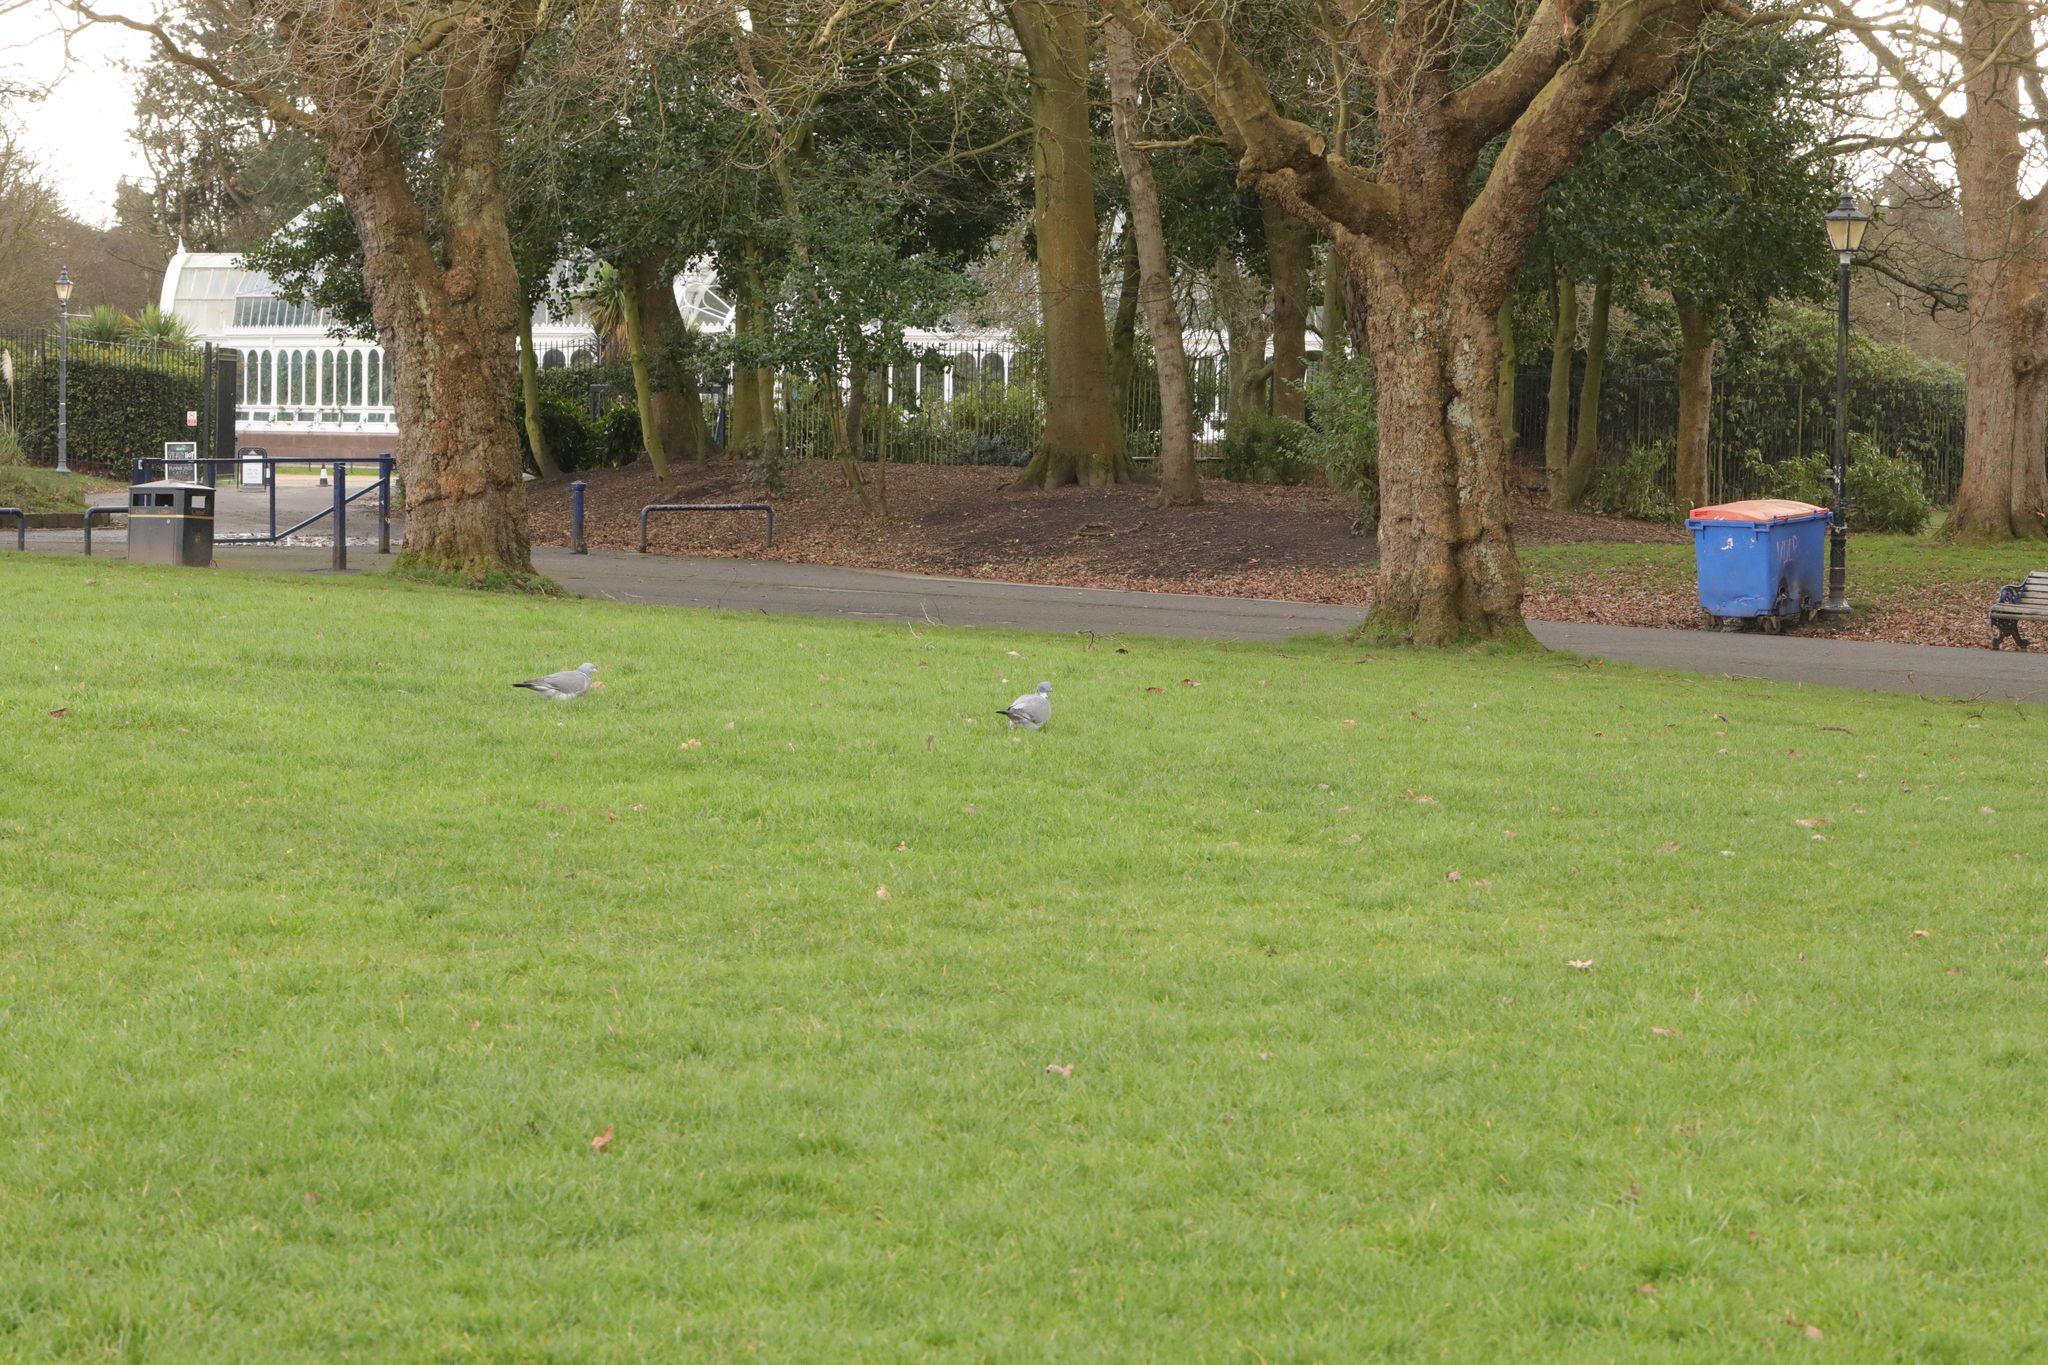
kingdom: Animalia
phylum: Chordata
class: Aves
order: Columbiformes
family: Columbidae
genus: Columba
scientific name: Columba palumbus
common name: Common wood pigeon
